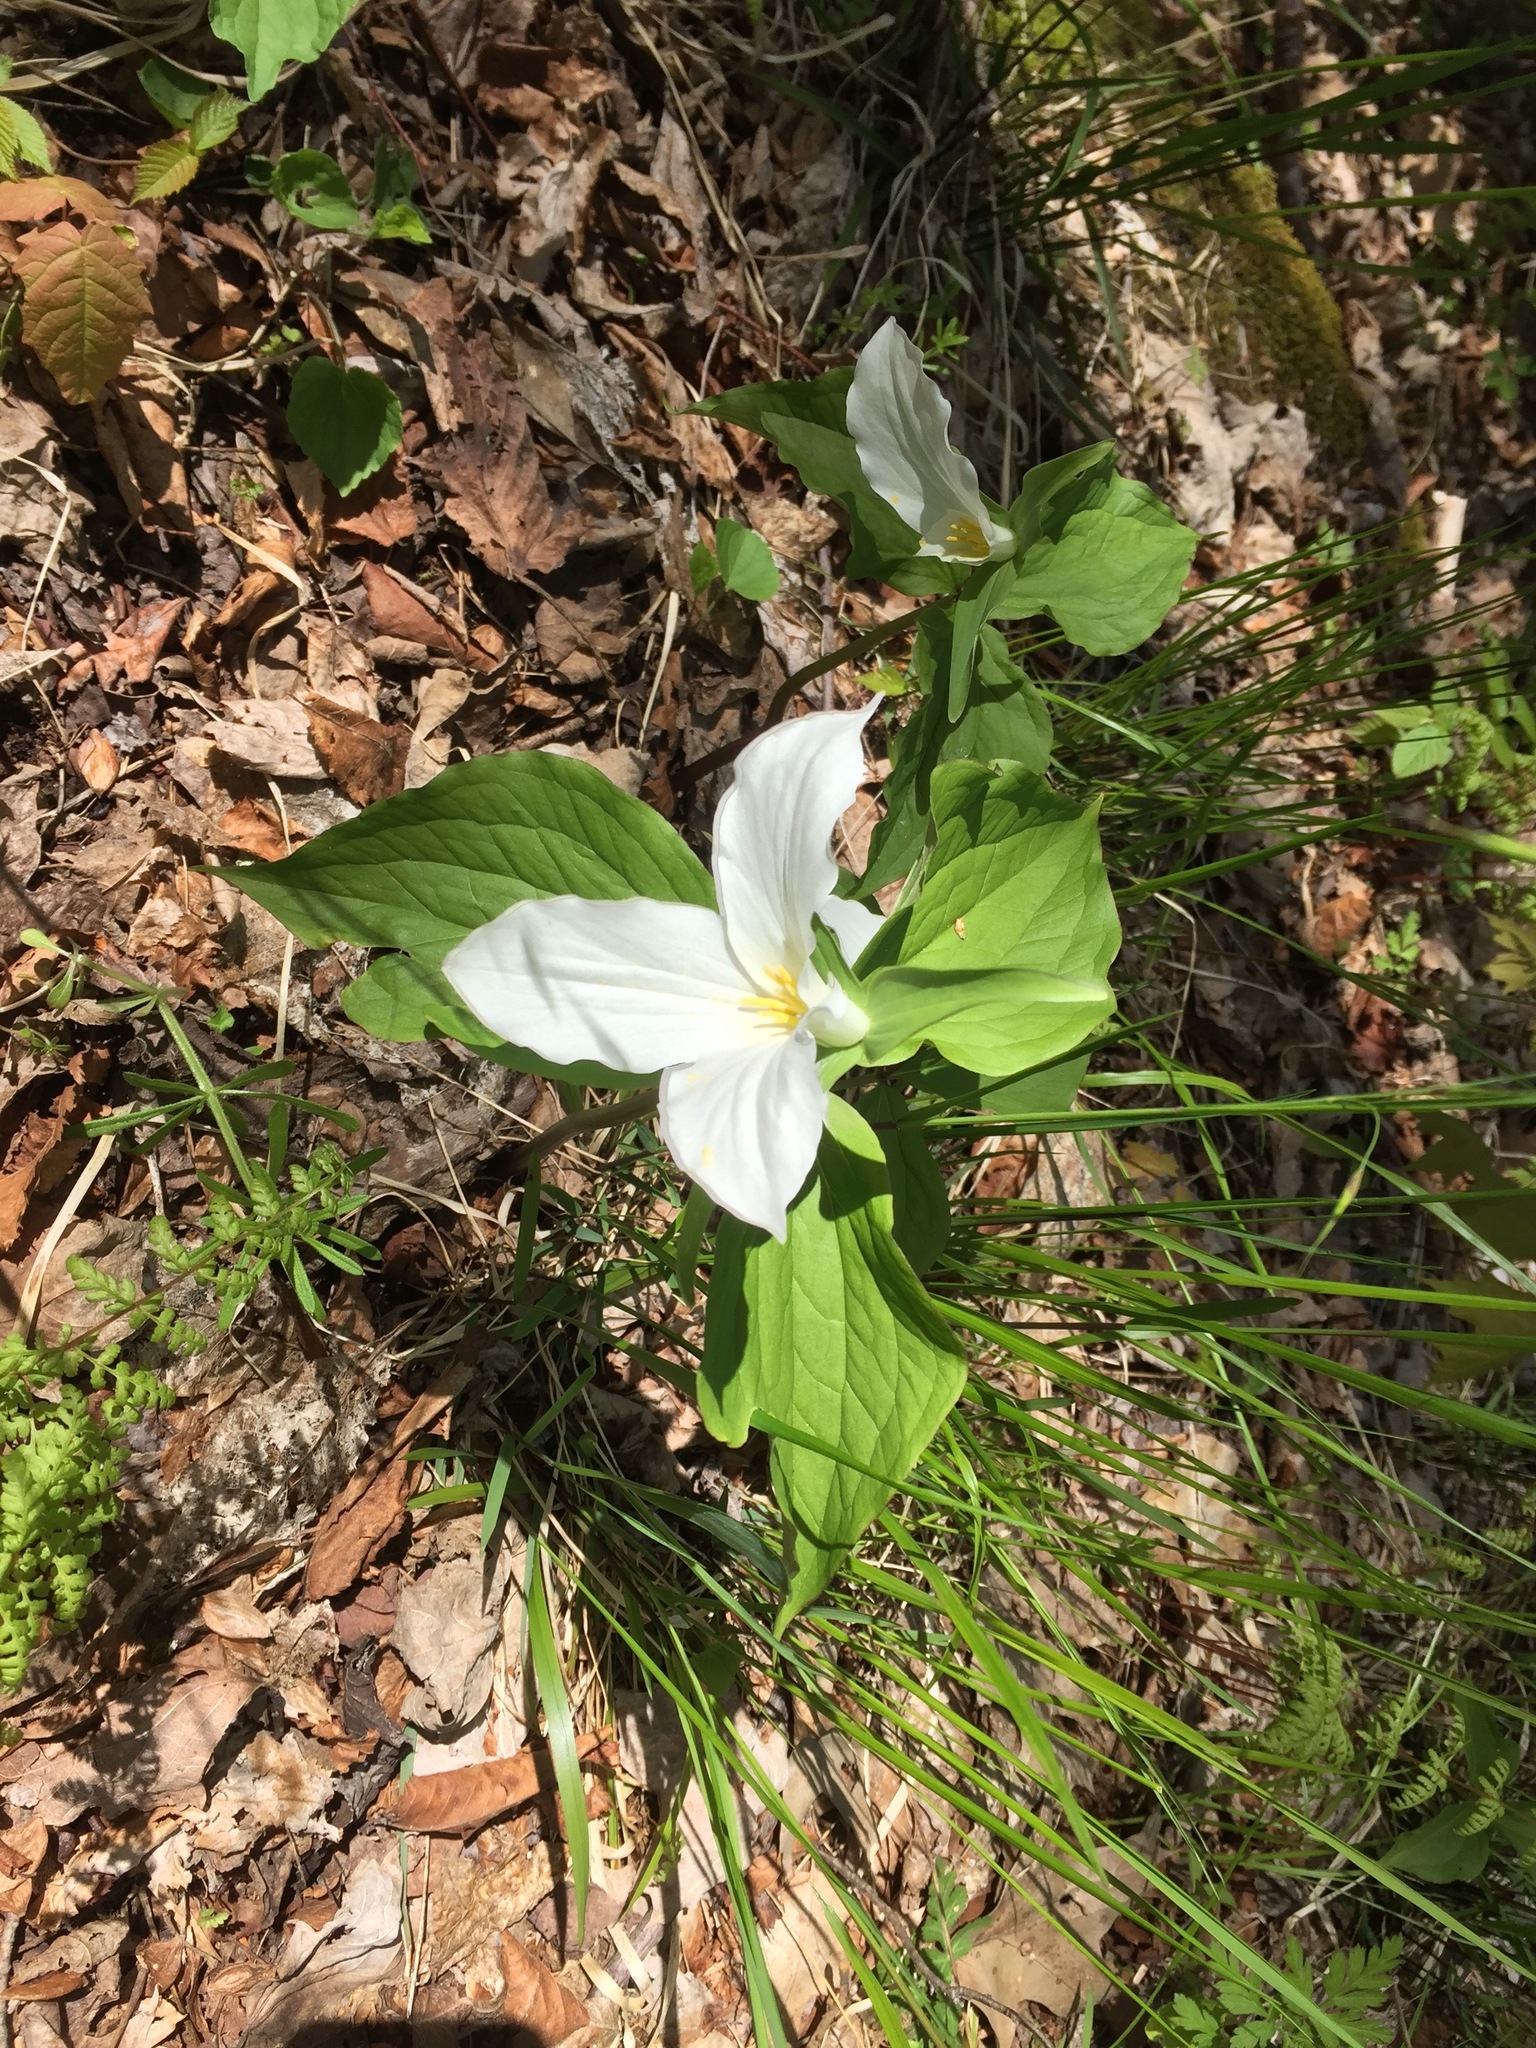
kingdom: Plantae
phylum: Tracheophyta
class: Liliopsida
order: Liliales
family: Melanthiaceae
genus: Trillium
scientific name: Trillium grandiflorum
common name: Great white trillium
